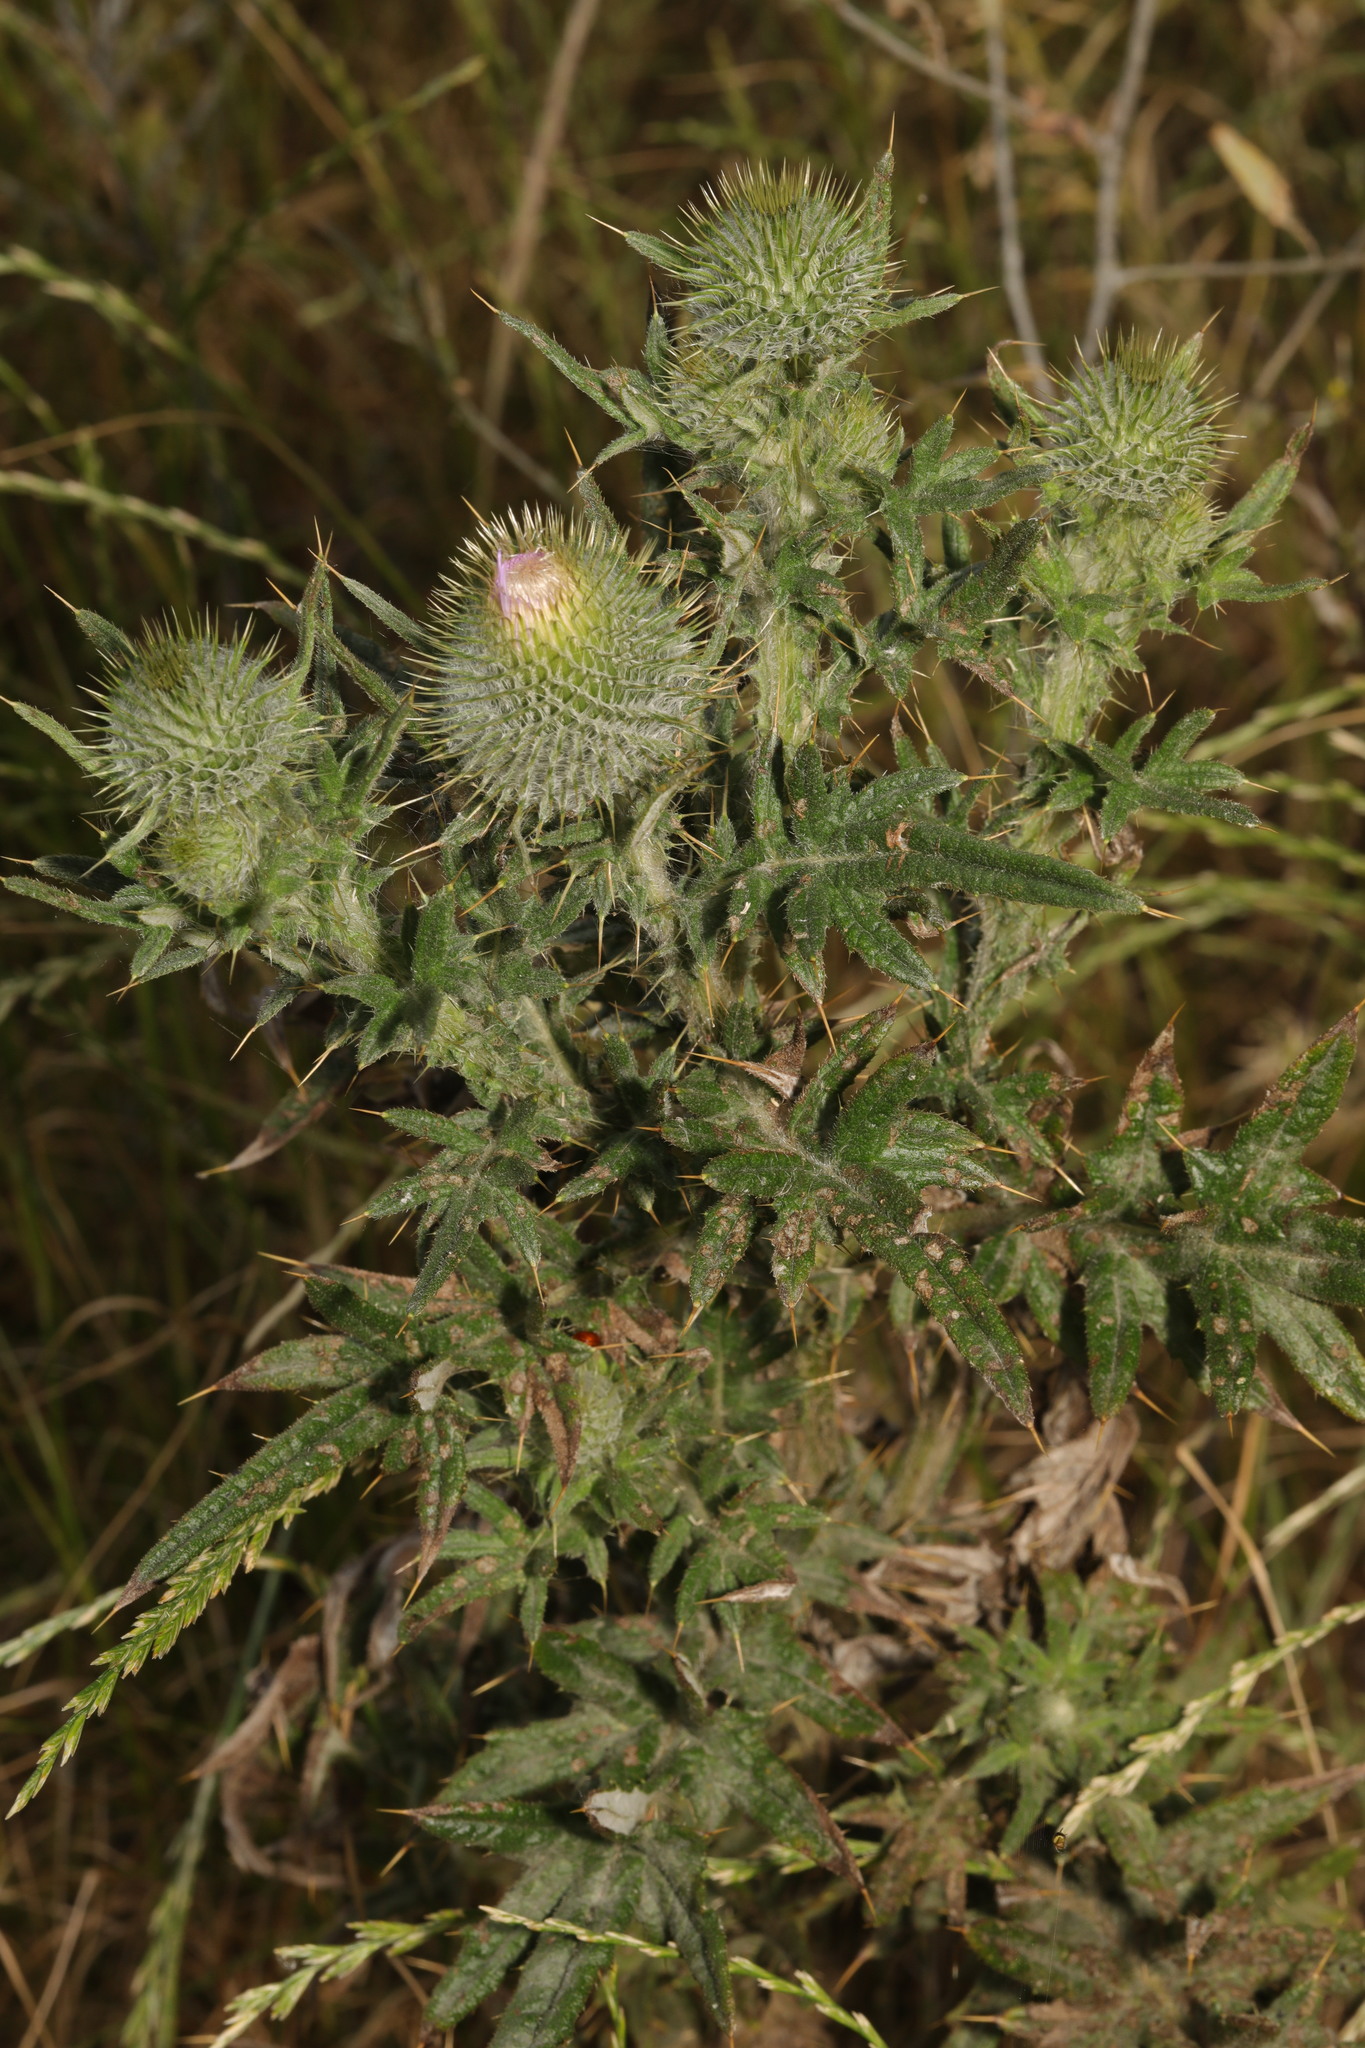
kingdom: Plantae
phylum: Tracheophyta
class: Magnoliopsida
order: Asterales
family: Asteraceae
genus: Cirsium
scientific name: Cirsium vulgare
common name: Bull thistle
